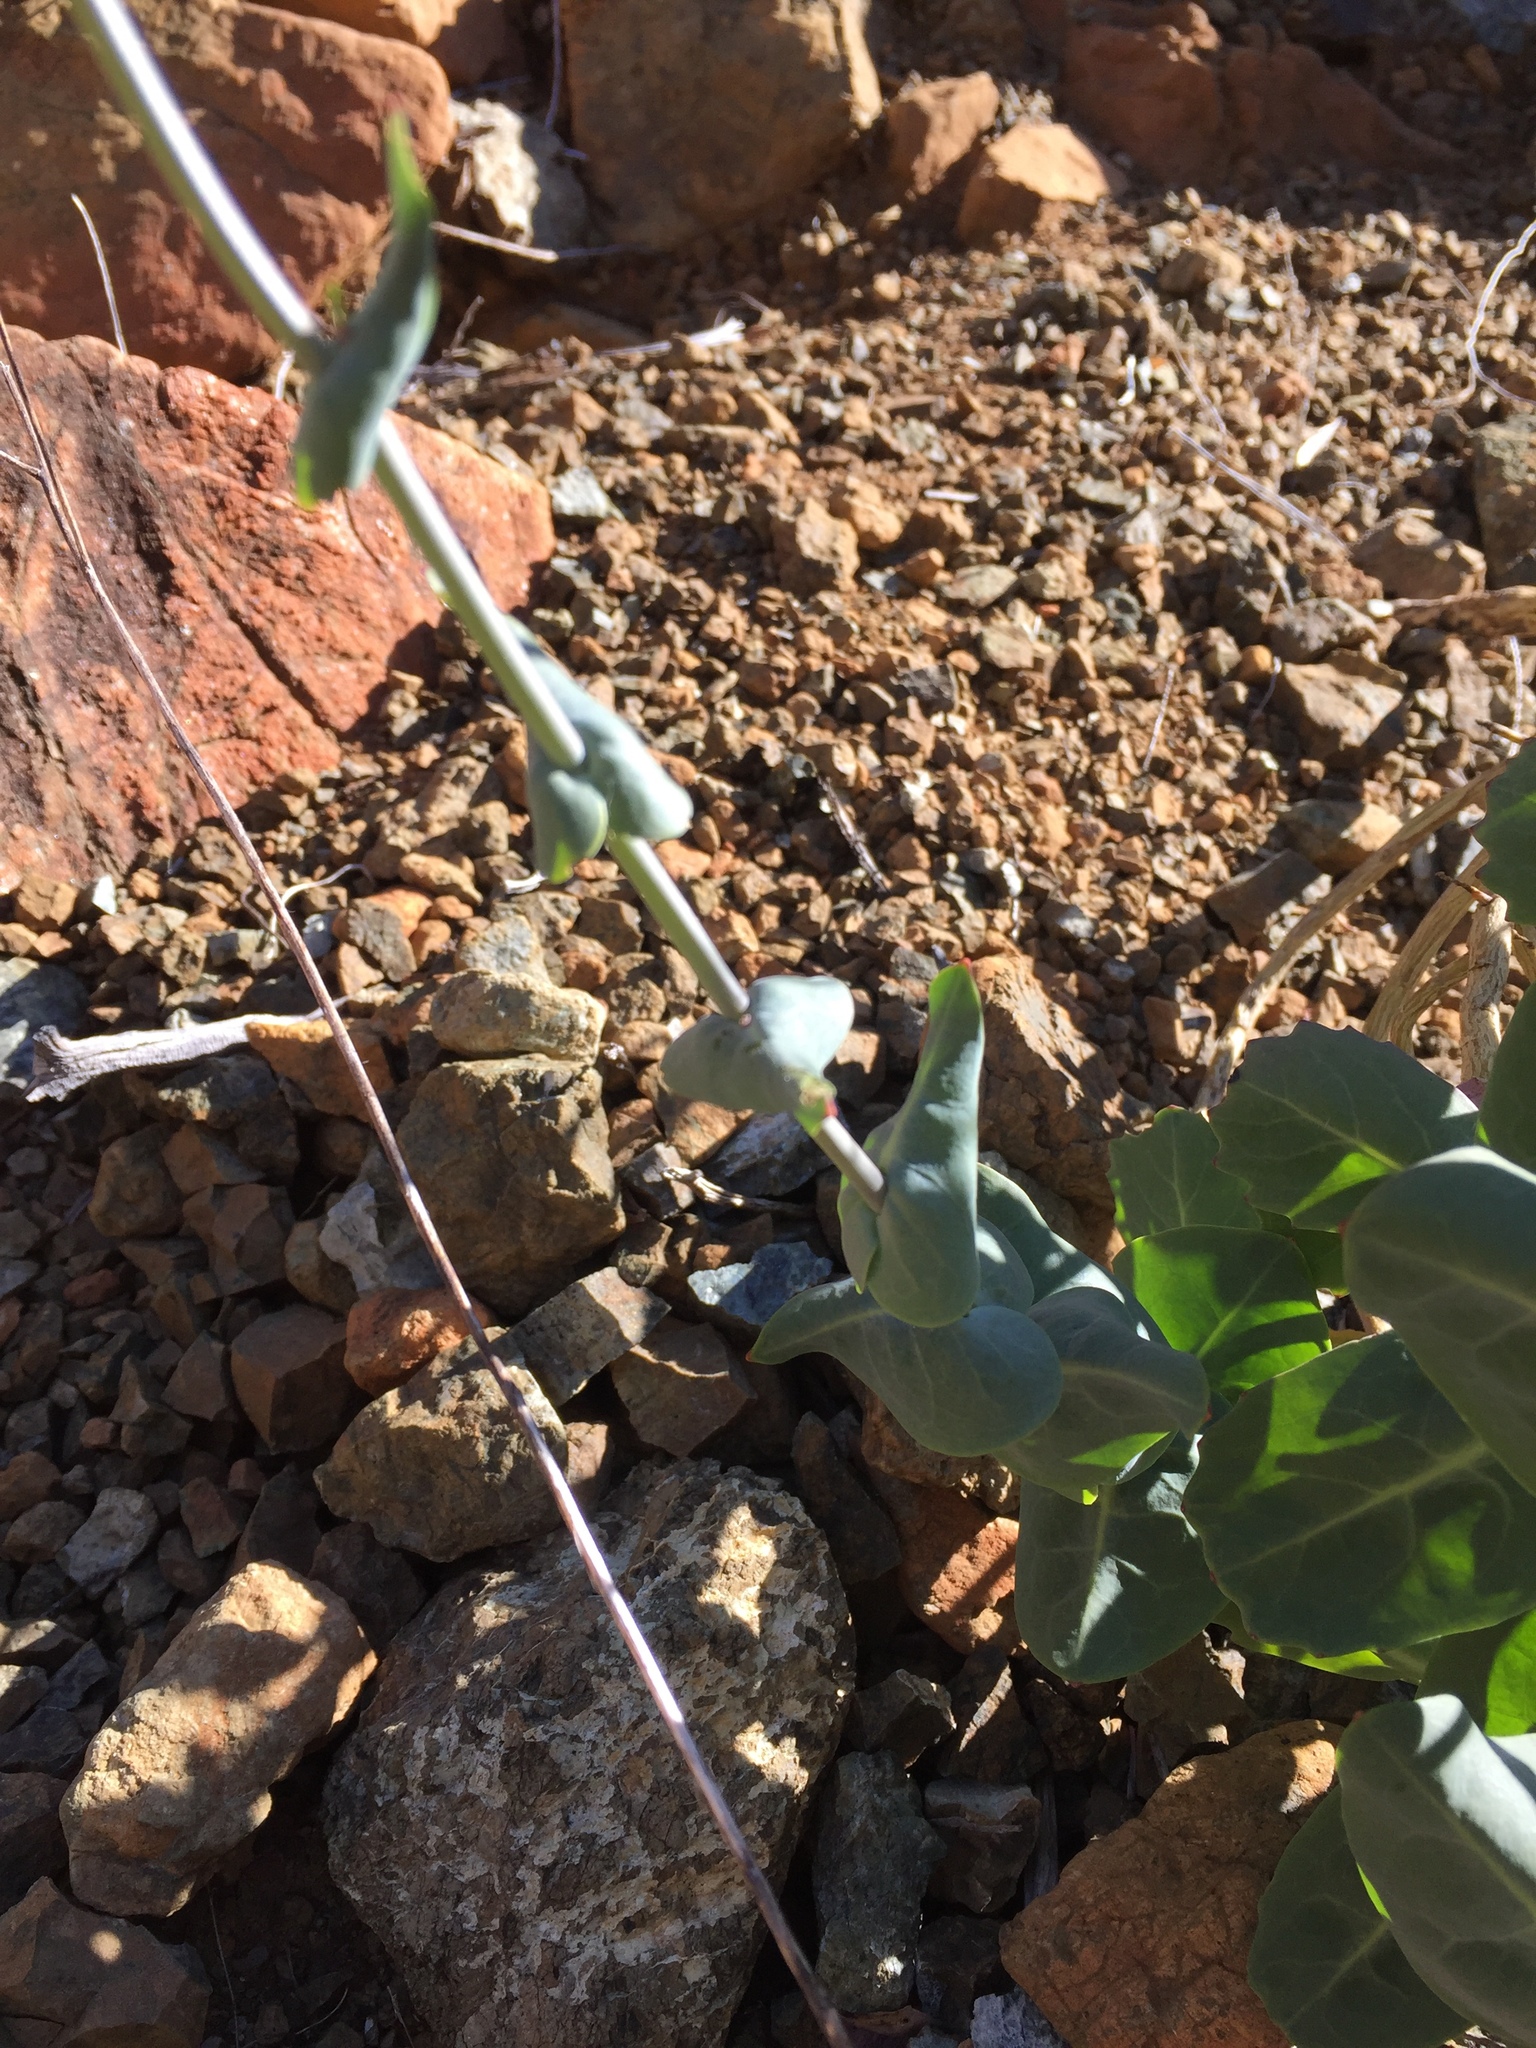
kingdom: Plantae
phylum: Tracheophyta
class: Magnoliopsida
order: Brassicales
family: Brassicaceae
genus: Streptanthus
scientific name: Streptanthus morrisonii
